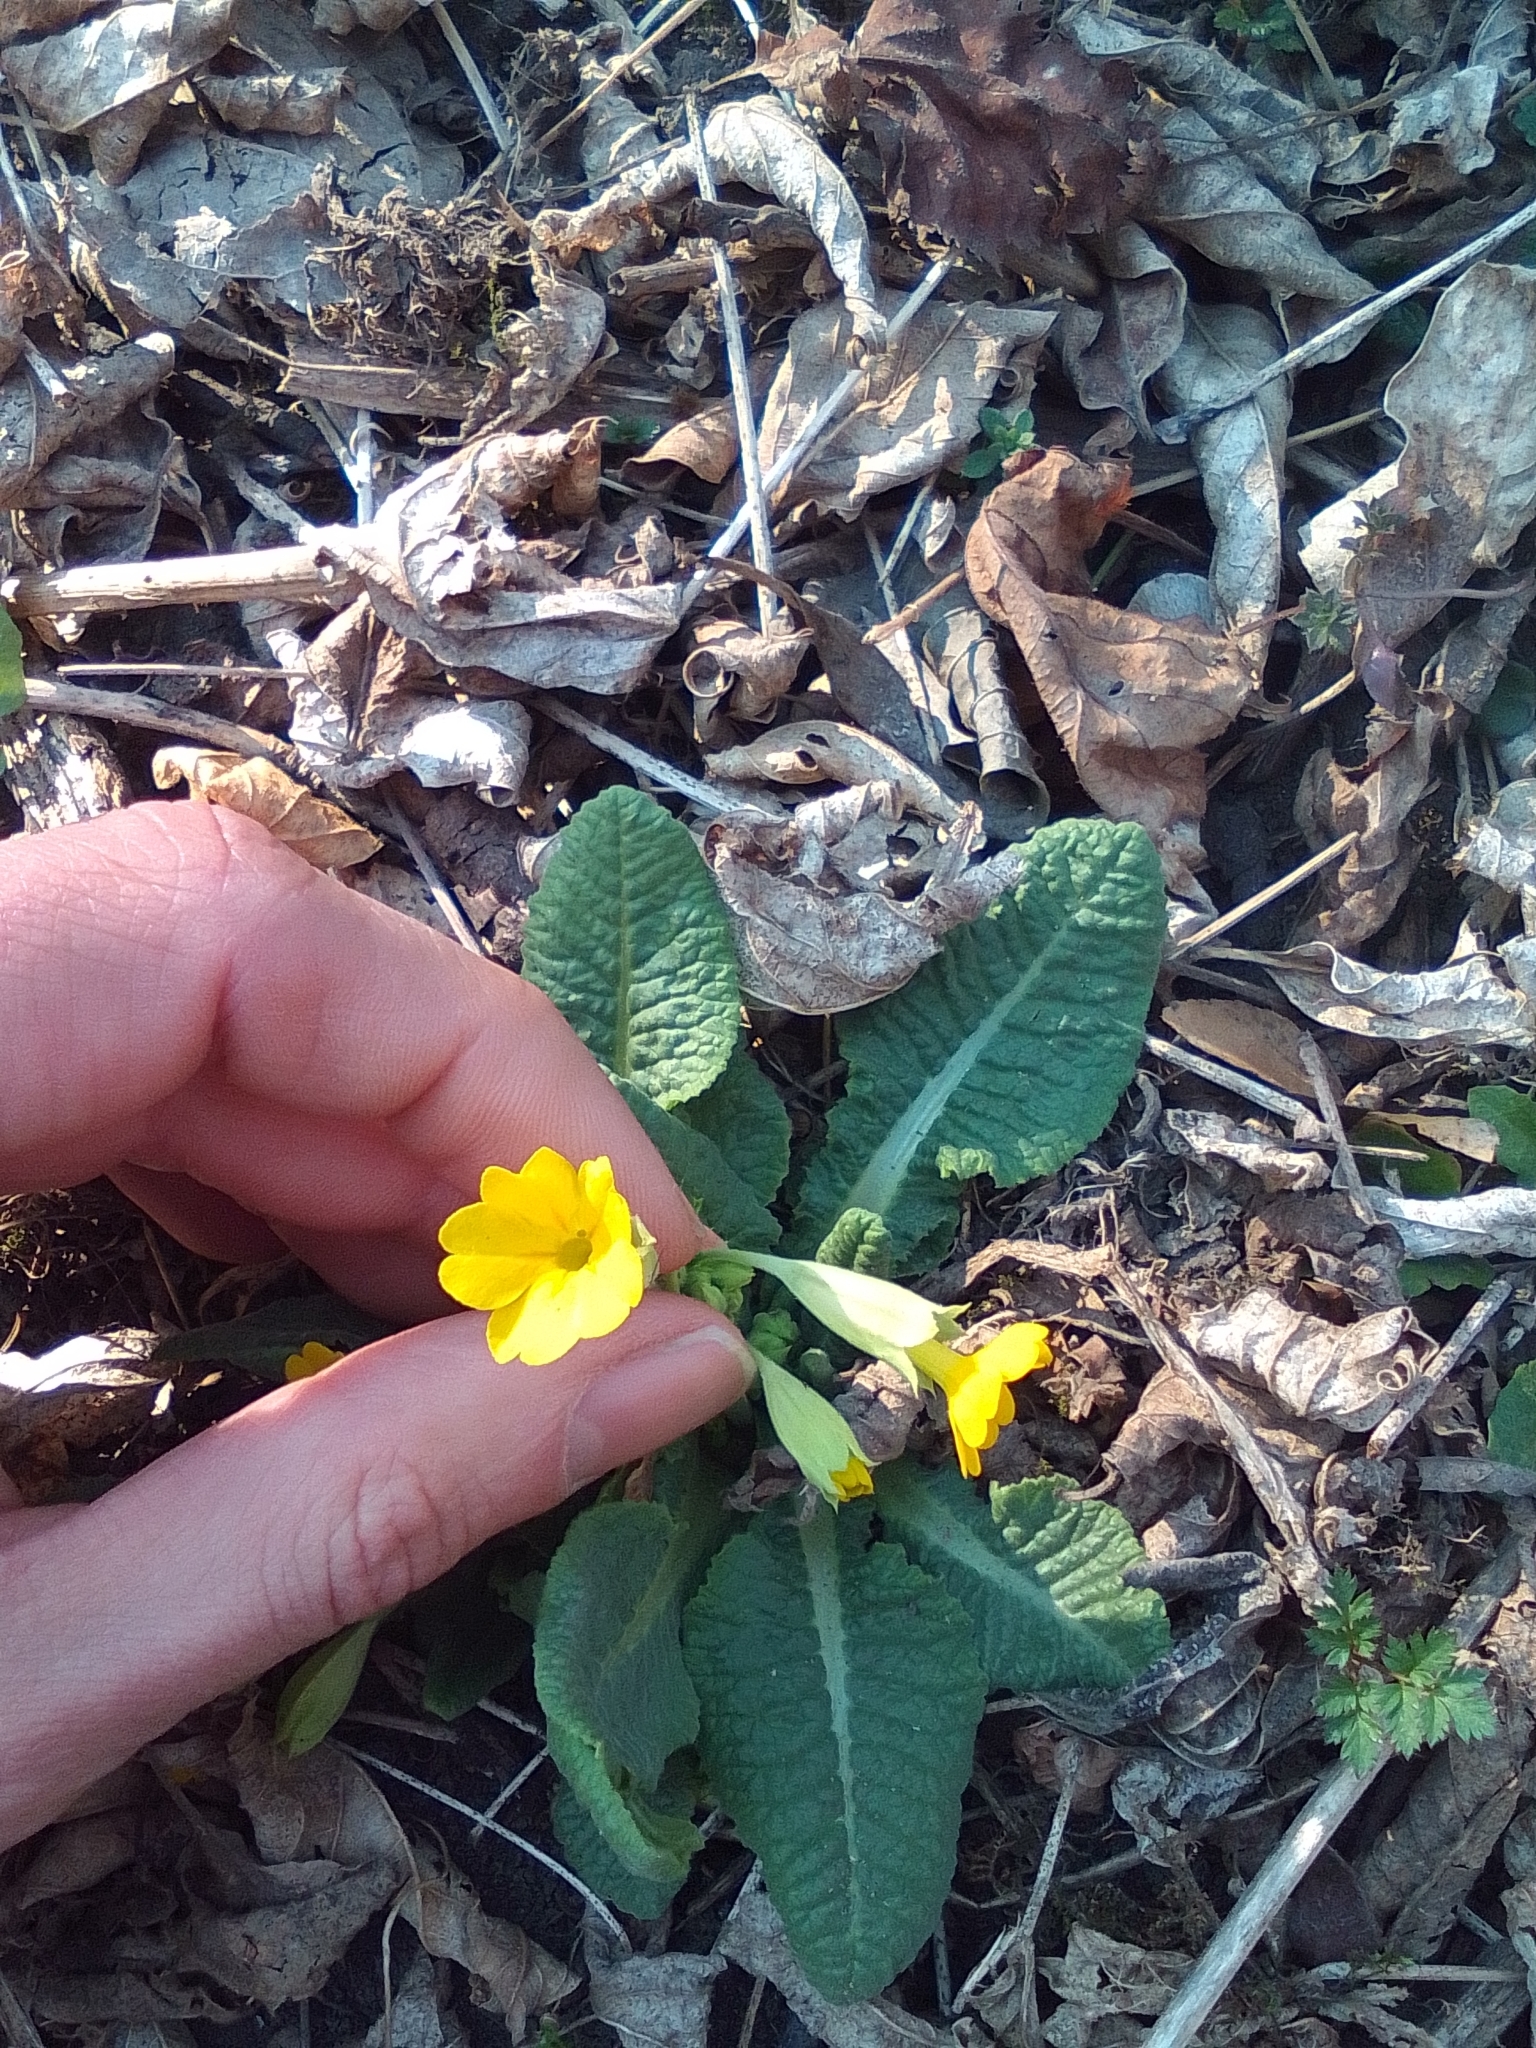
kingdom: Plantae
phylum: Tracheophyta
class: Magnoliopsida
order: Ericales
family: Primulaceae
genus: Primula
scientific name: Primula veris
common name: Cowslip
